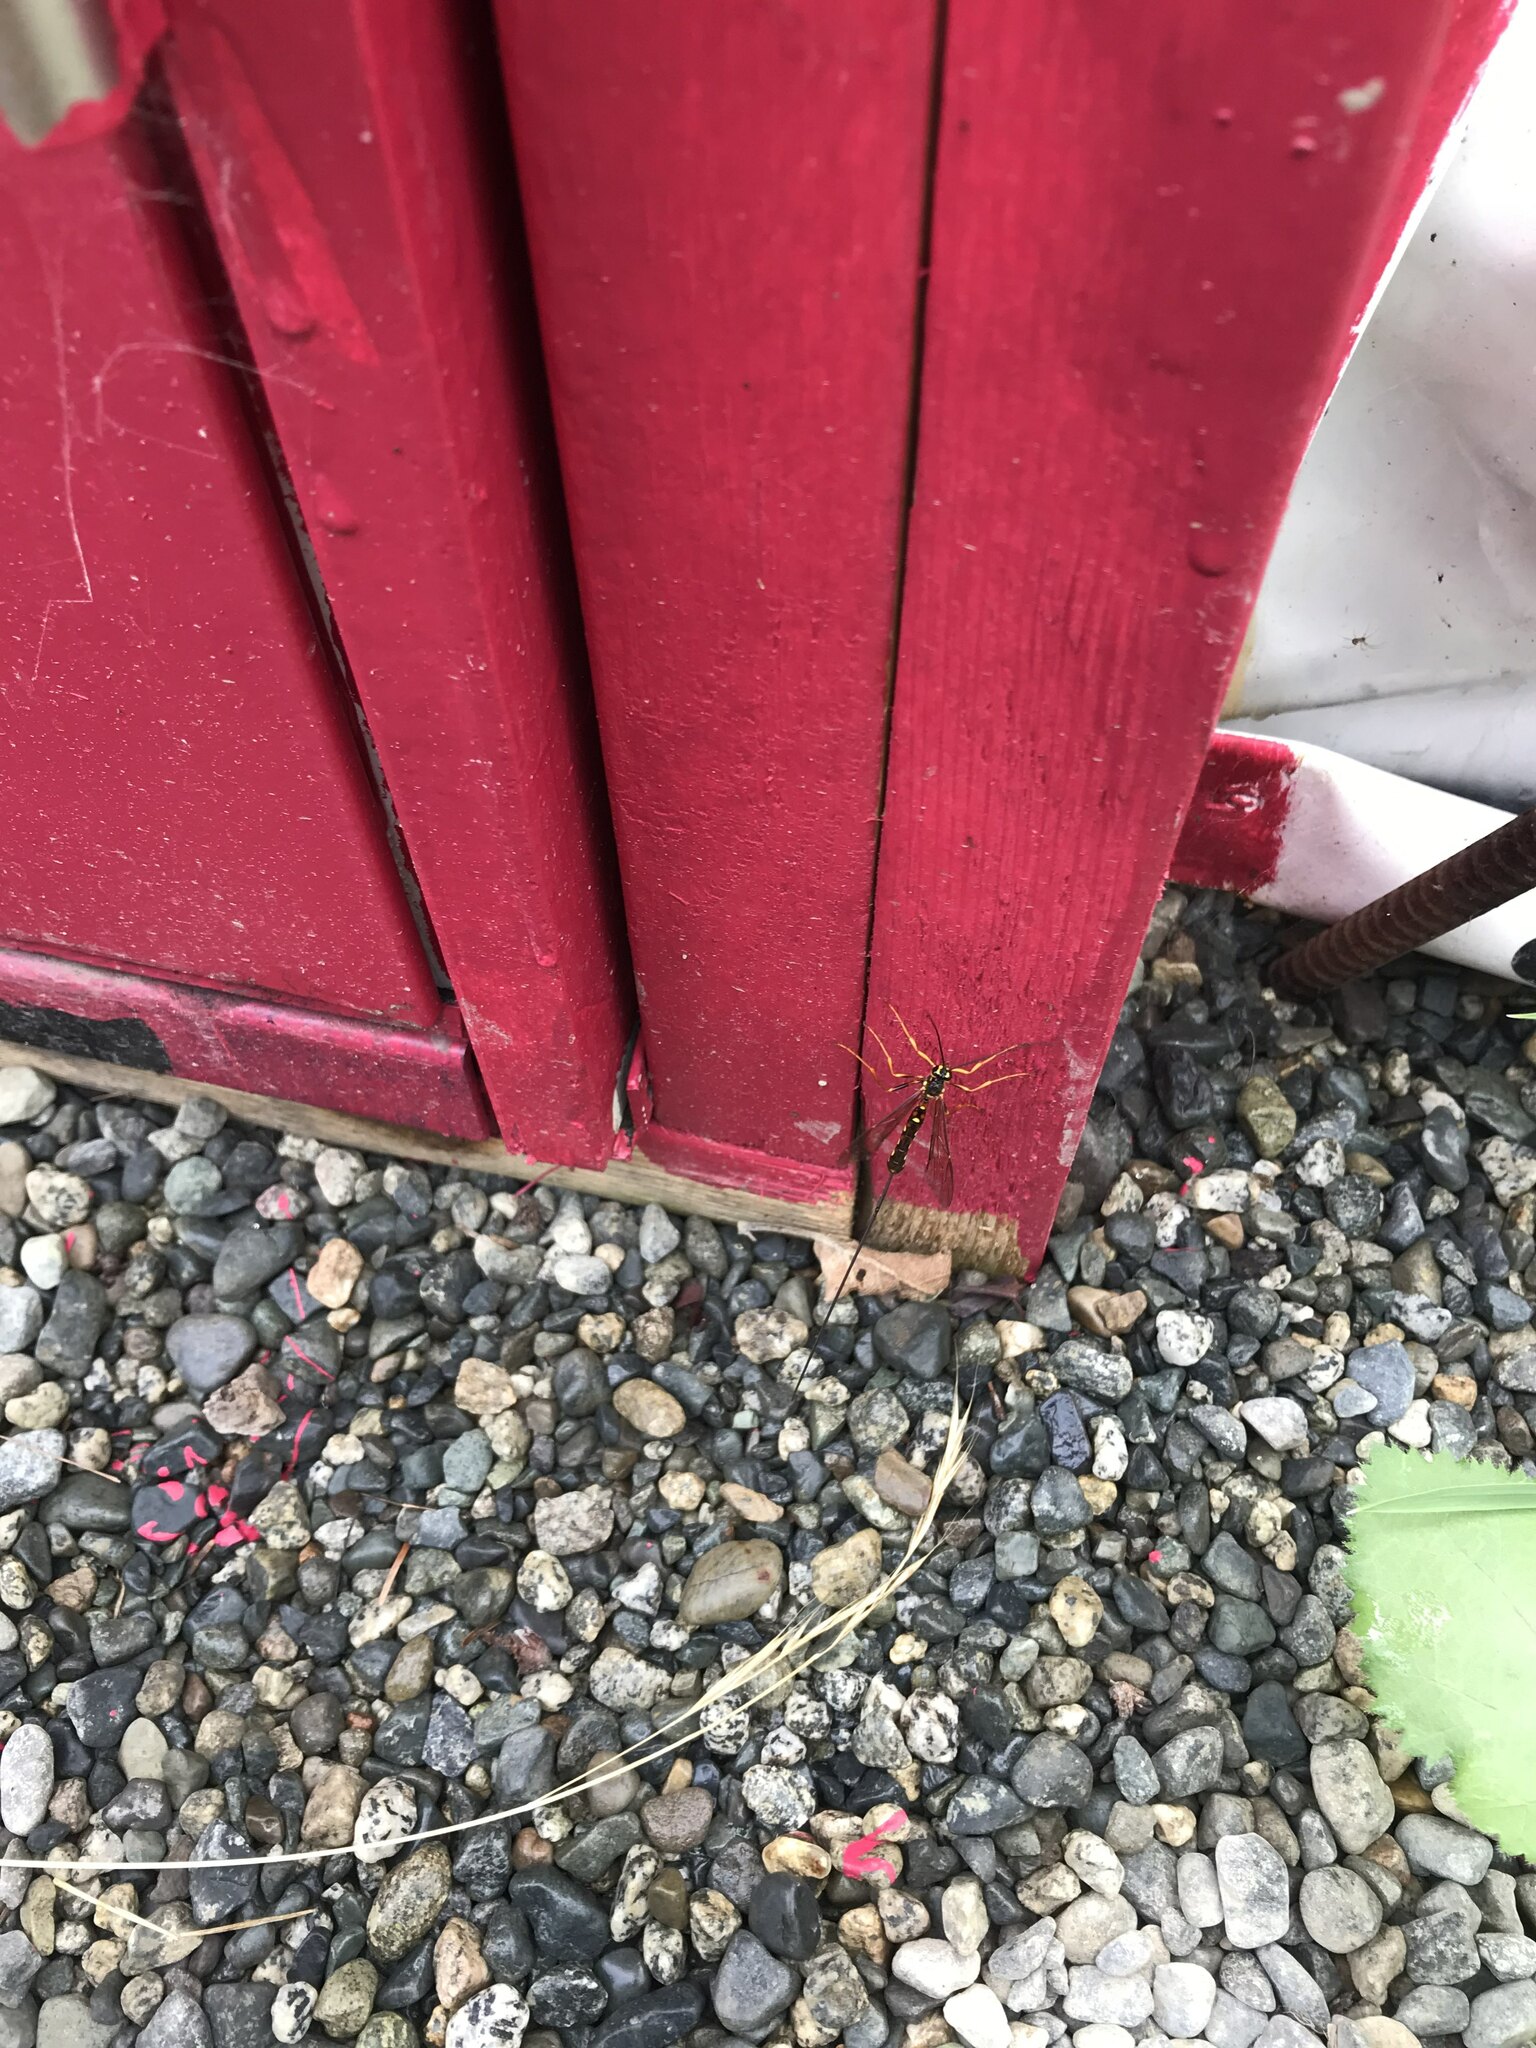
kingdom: Animalia
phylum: Arthropoda
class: Insecta
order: Hymenoptera
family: Ichneumonidae
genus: Megarhyssa
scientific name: Megarhyssa nortoni
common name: Norton's giant ichneumonid wasp
